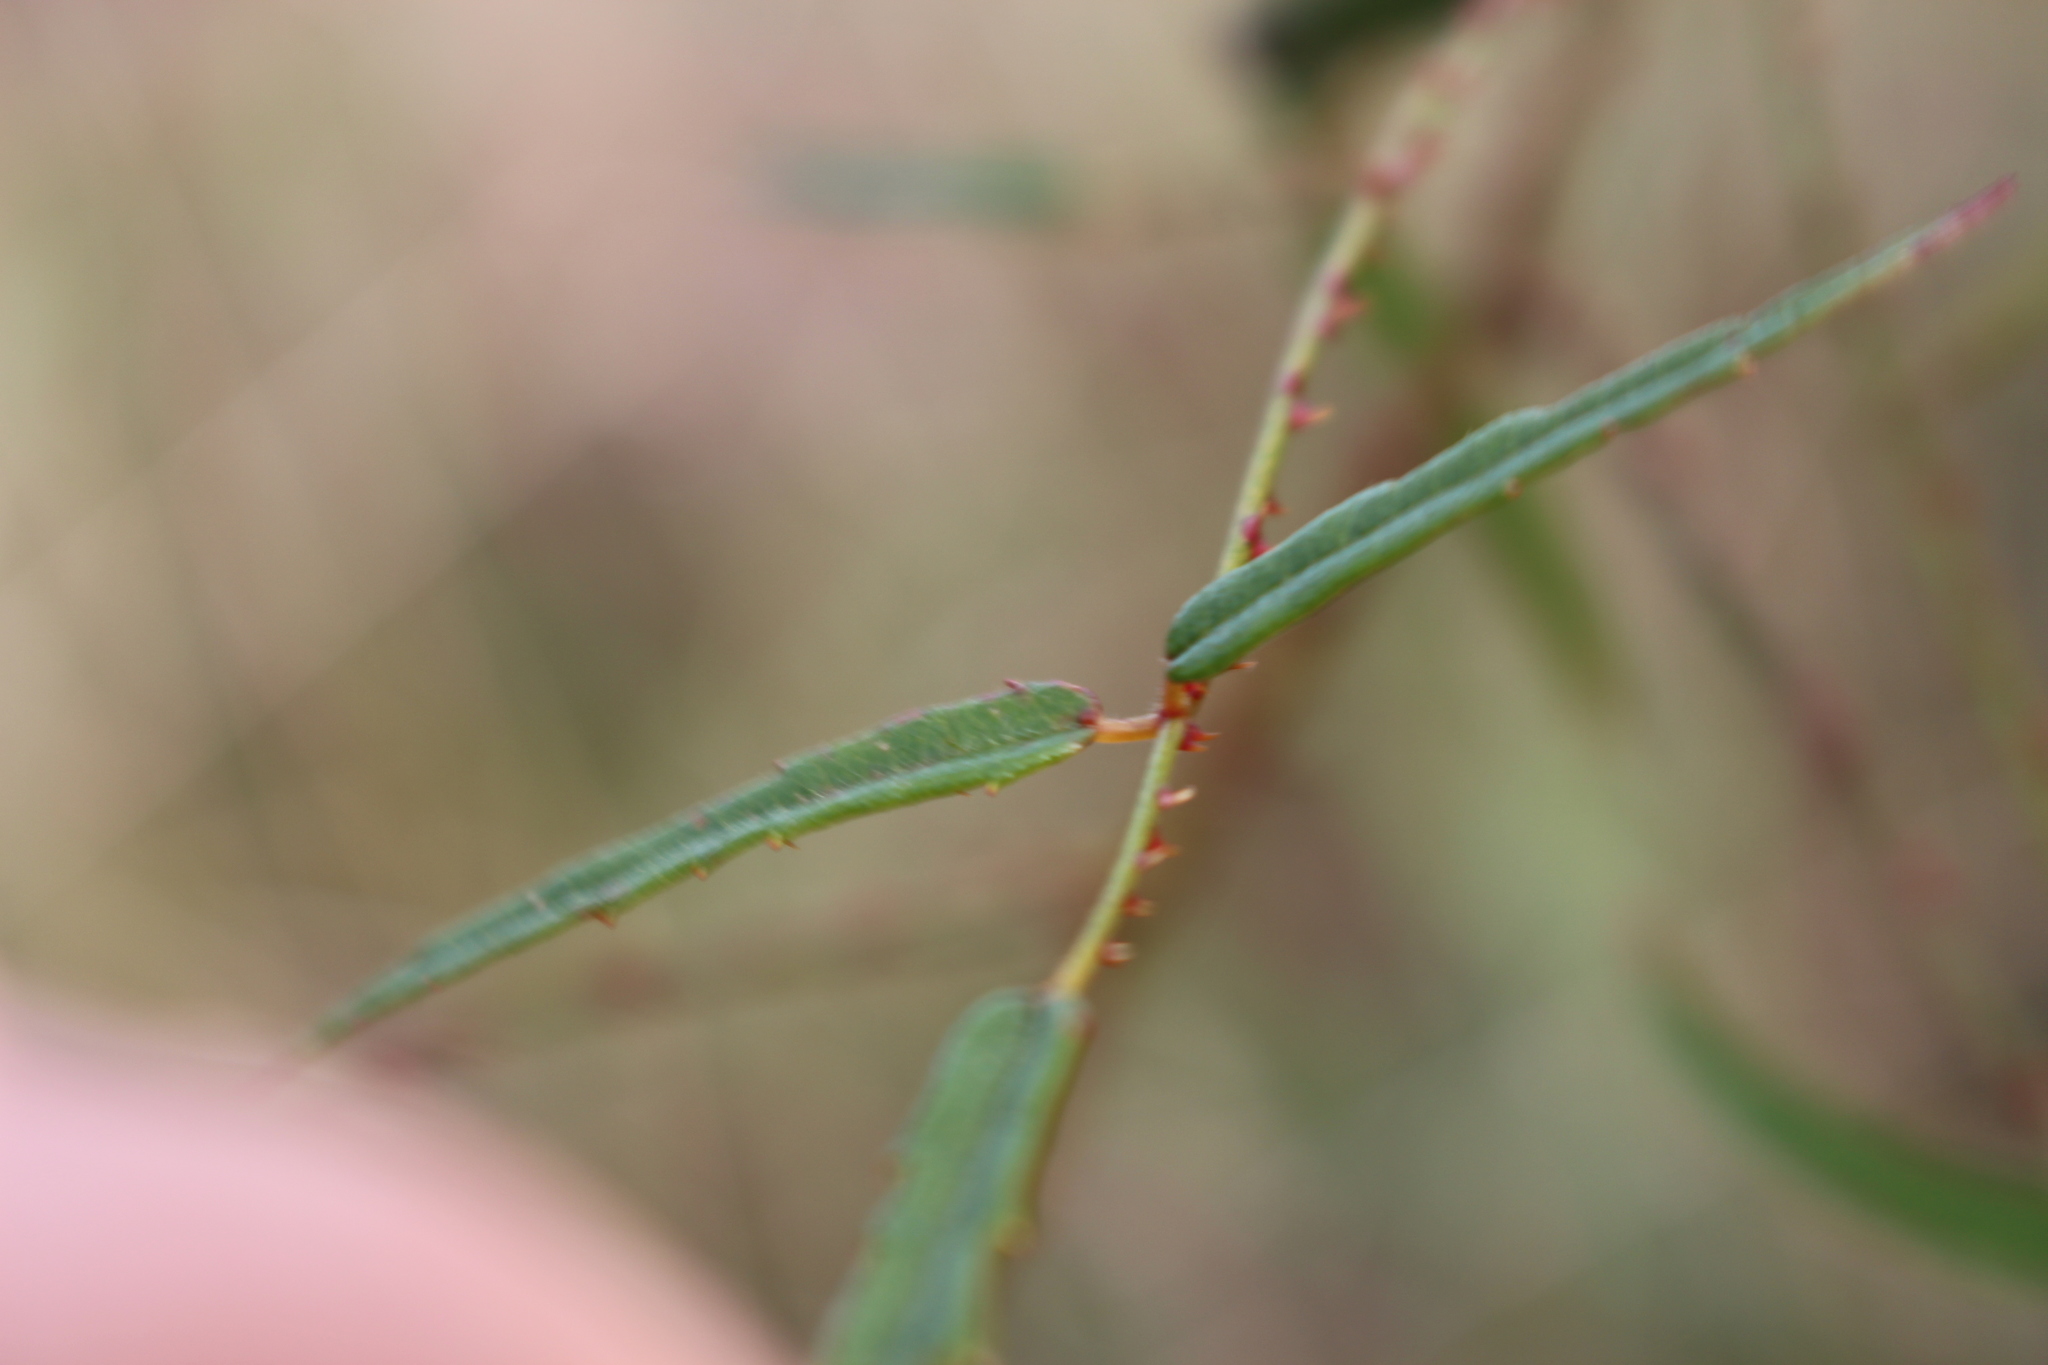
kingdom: Plantae
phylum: Tracheophyta
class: Magnoliopsida
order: Rosales
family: Rosaceae
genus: Rubus
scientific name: Rubus schmidelioides
